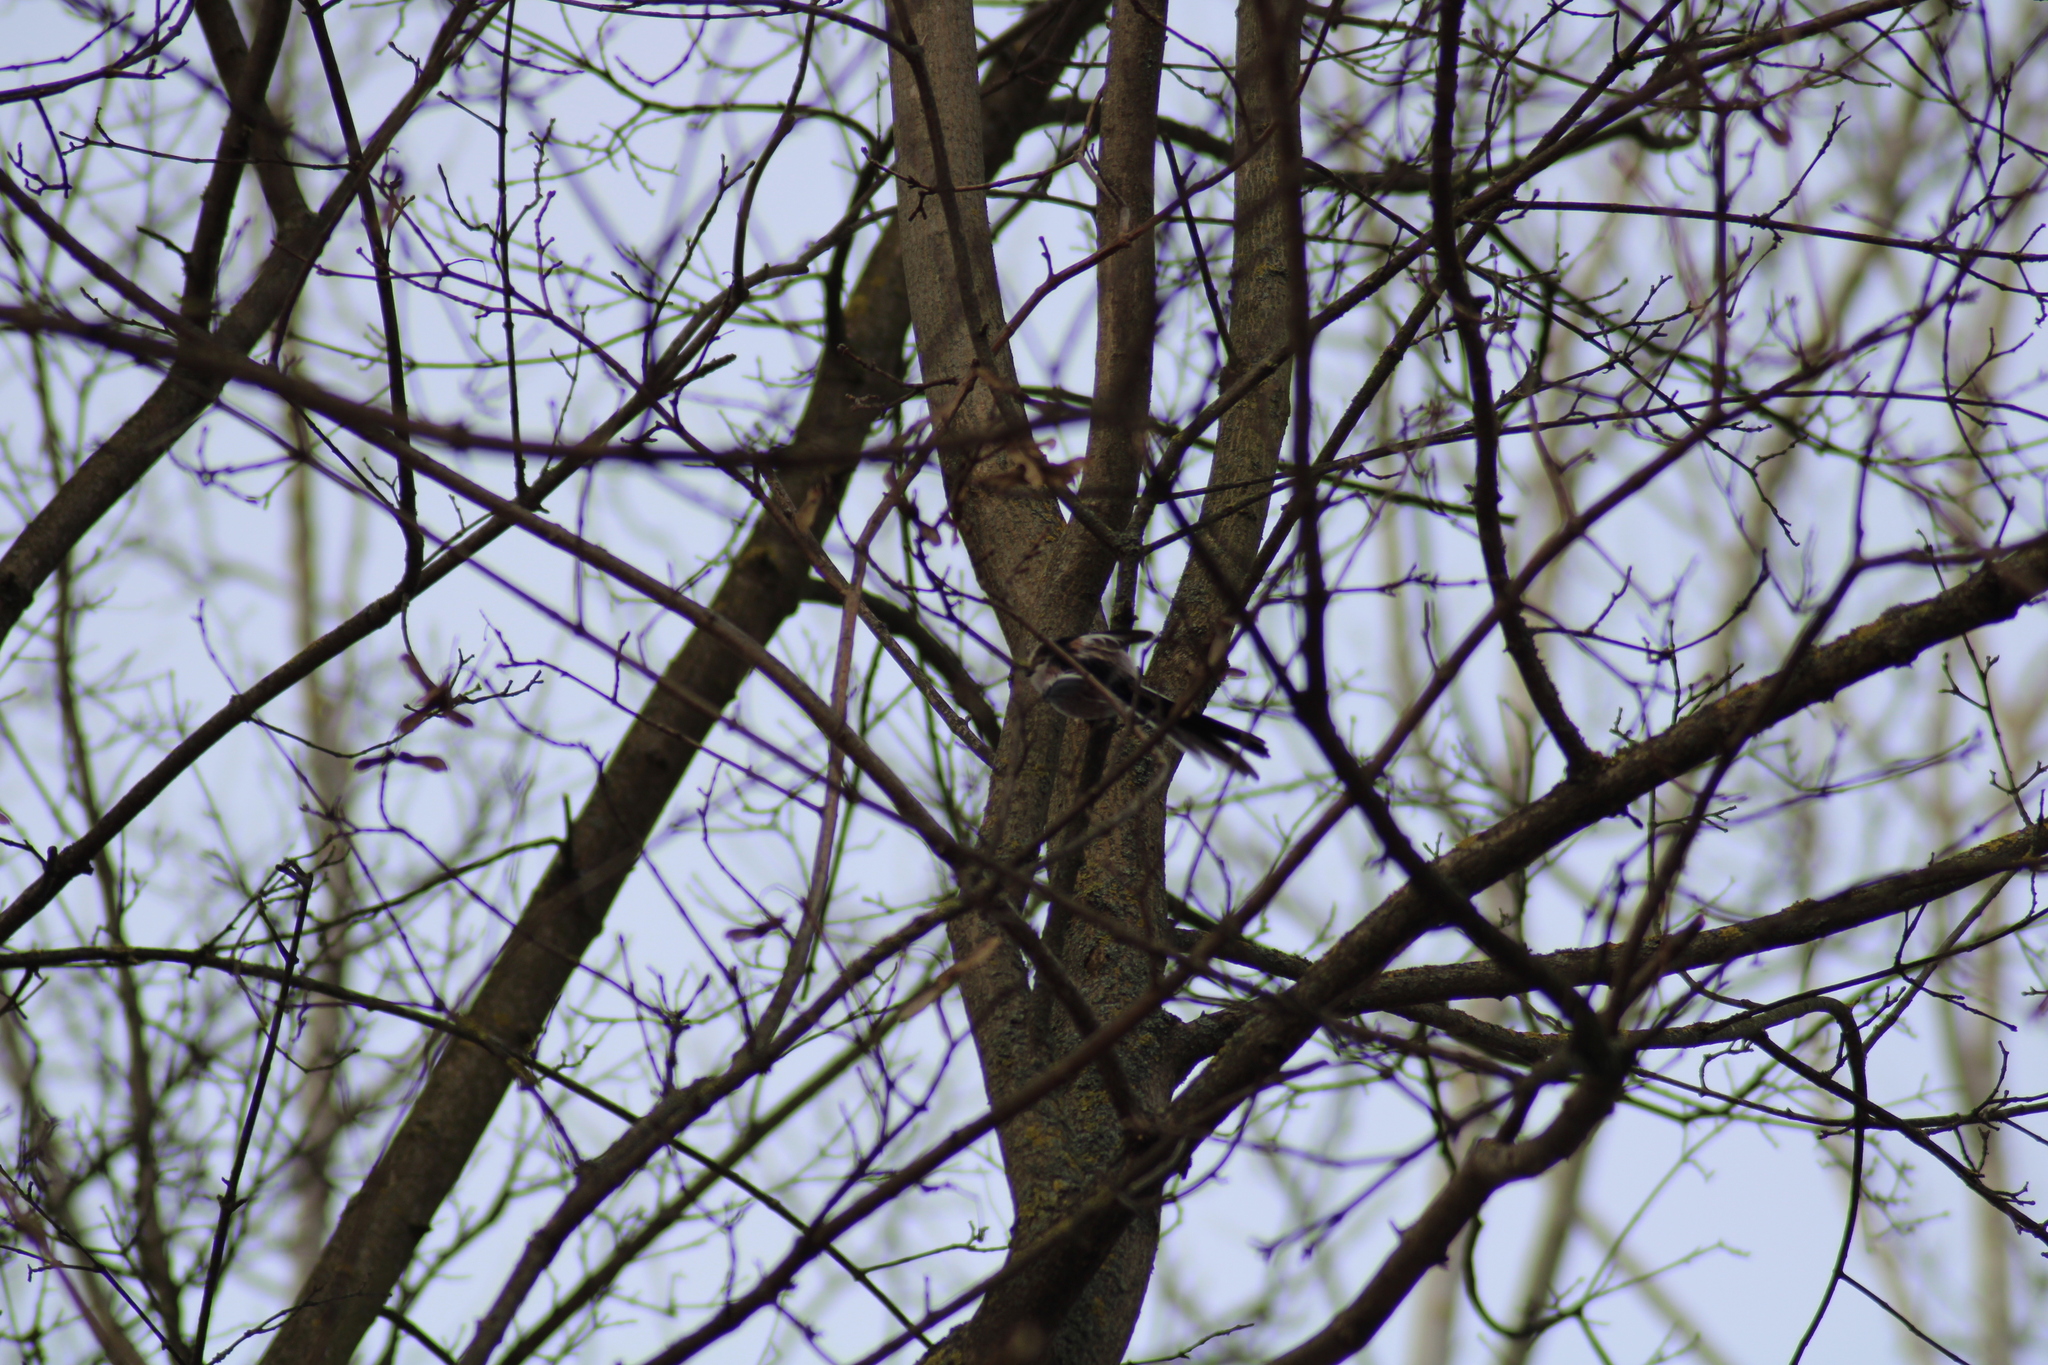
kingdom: Animalia
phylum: Chordata
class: Aves
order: Passeriformes
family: Aegithalidae
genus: Aegithalos
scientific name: Aegithalos caudatus
